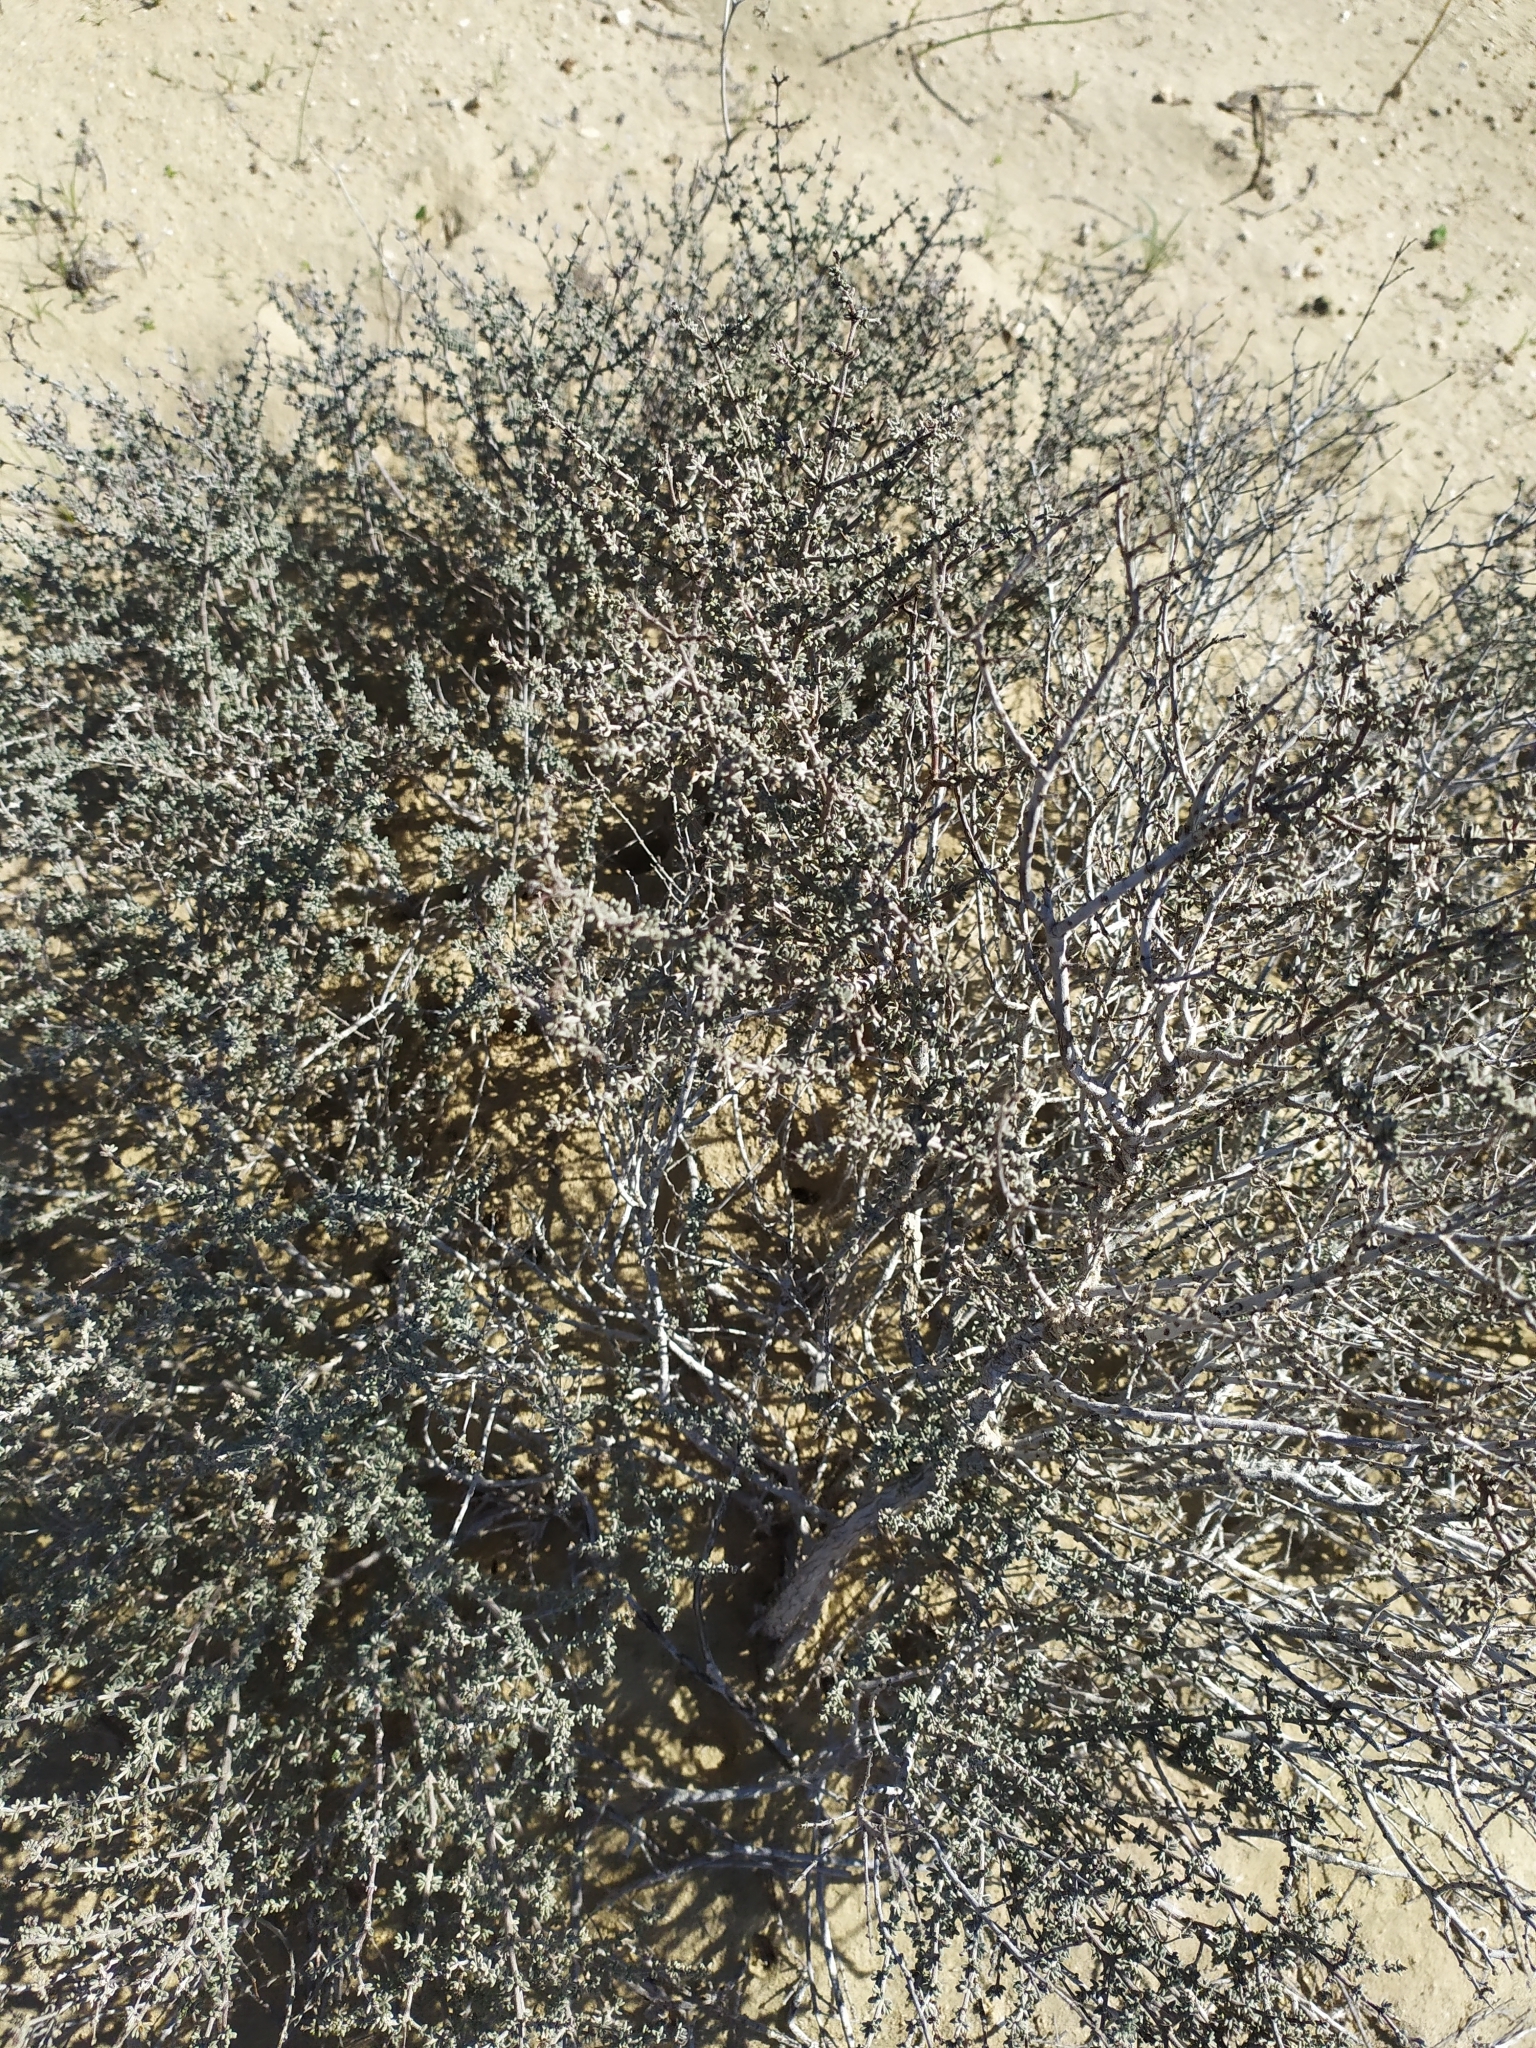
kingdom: Plantae
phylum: Tracheophyta
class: Magnoliopsida
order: Caryophyllales
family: Frankeniaceae
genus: Frankenia
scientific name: Frankenia palmeri
